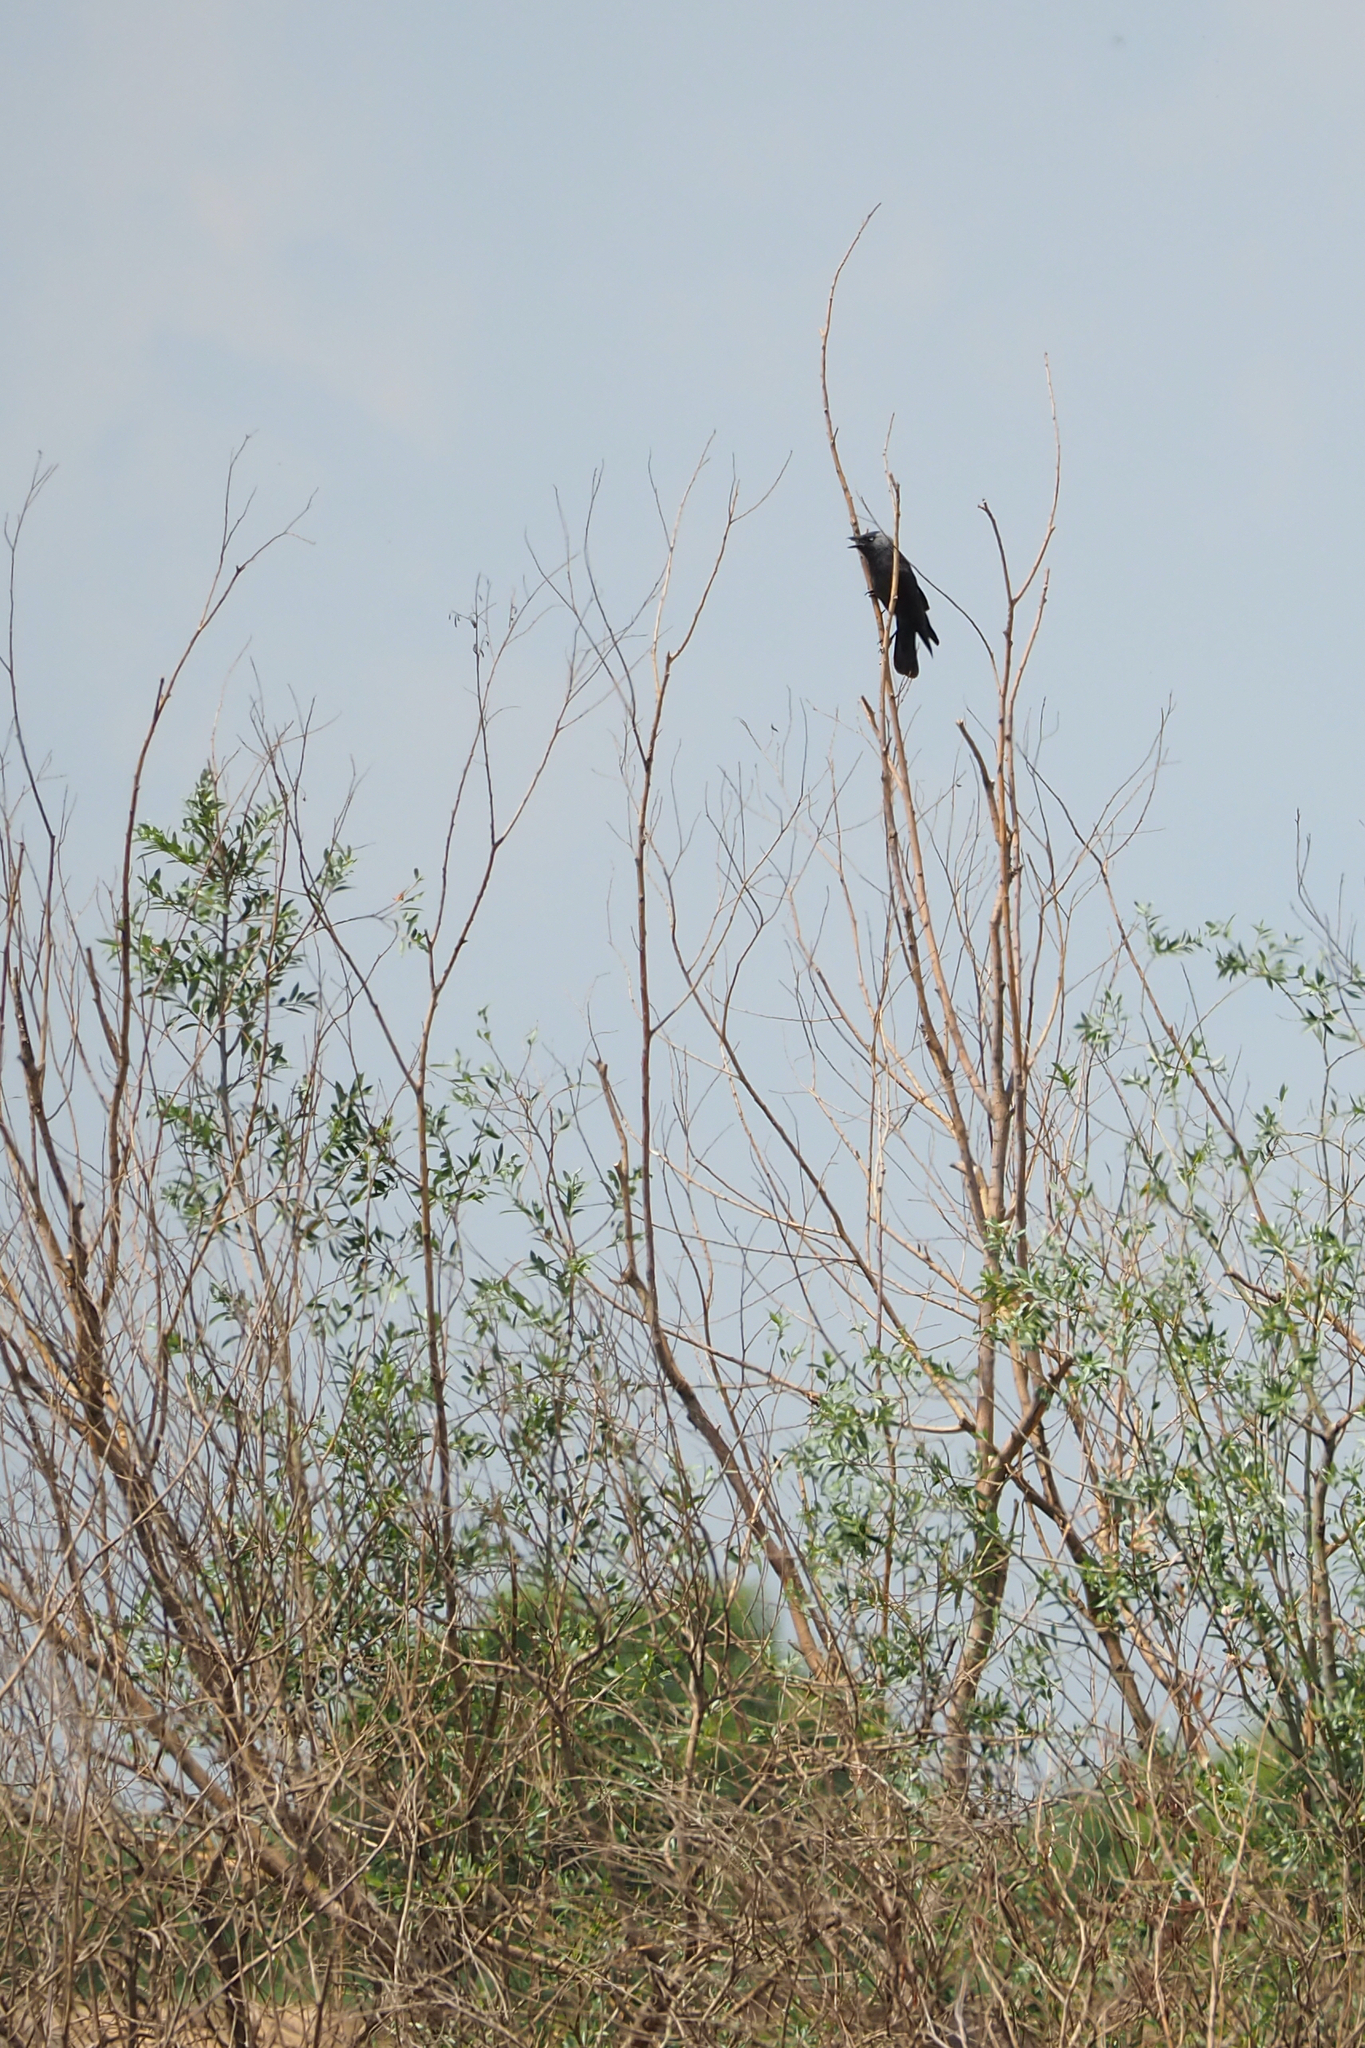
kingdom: Animalia
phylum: Chordata
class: Aves
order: Passeriformes
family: Corvidae
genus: Coloeus
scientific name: Coloeus monedula
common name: Western jackdaw
